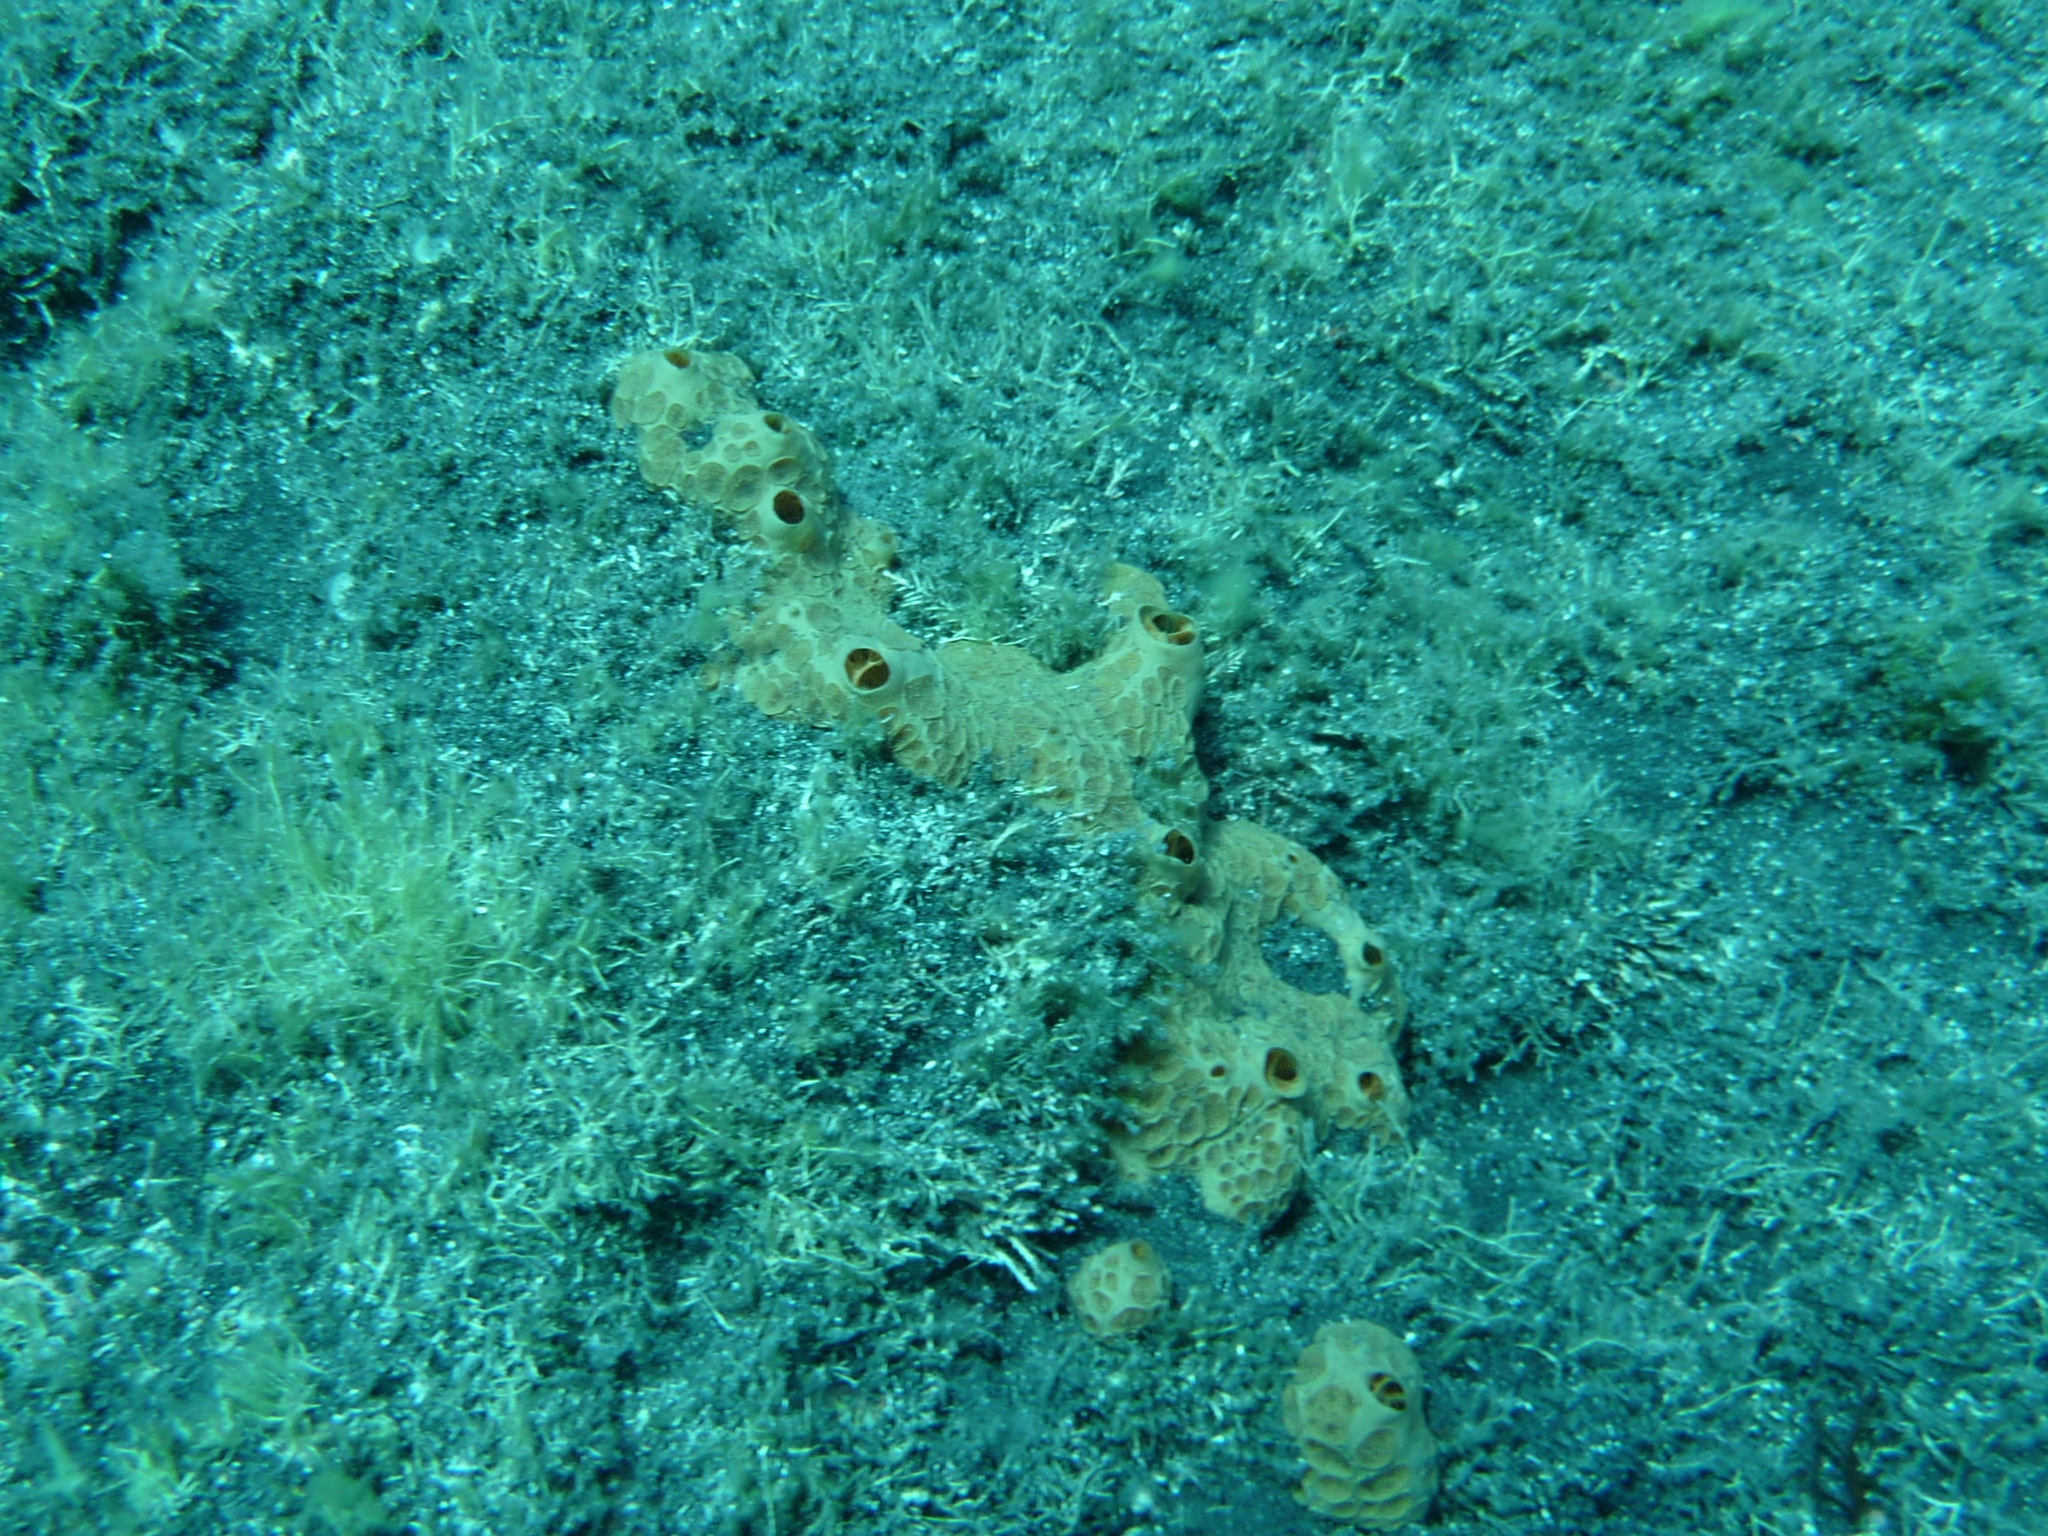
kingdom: Animalia
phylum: Porifera
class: Demospongiae
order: Poecilosclerida
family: Hymedesmiidae
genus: Hemimycale
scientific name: Hemimycale columella
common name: Crater sponge
